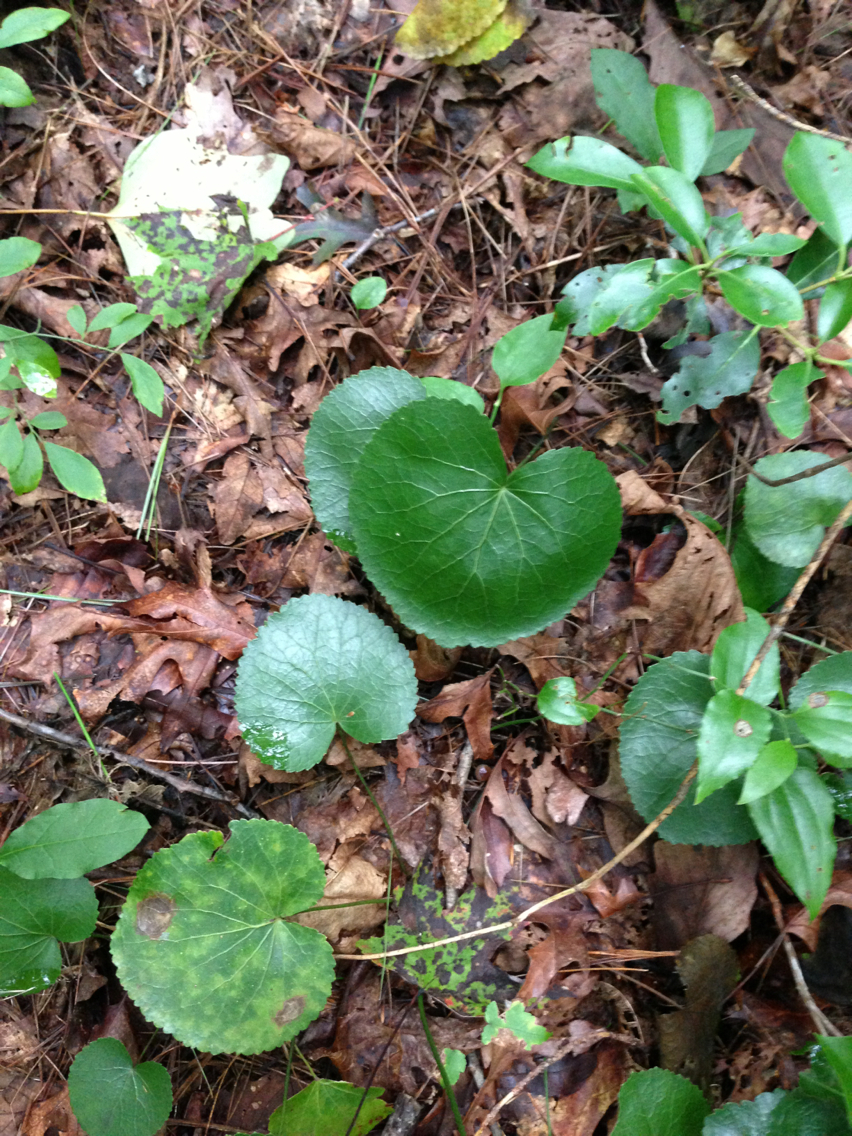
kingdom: Plantae
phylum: Tracheophyta
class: Magnoliopsida
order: Ericales
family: Diapensiaceae
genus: Galax
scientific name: Galax urceolata
